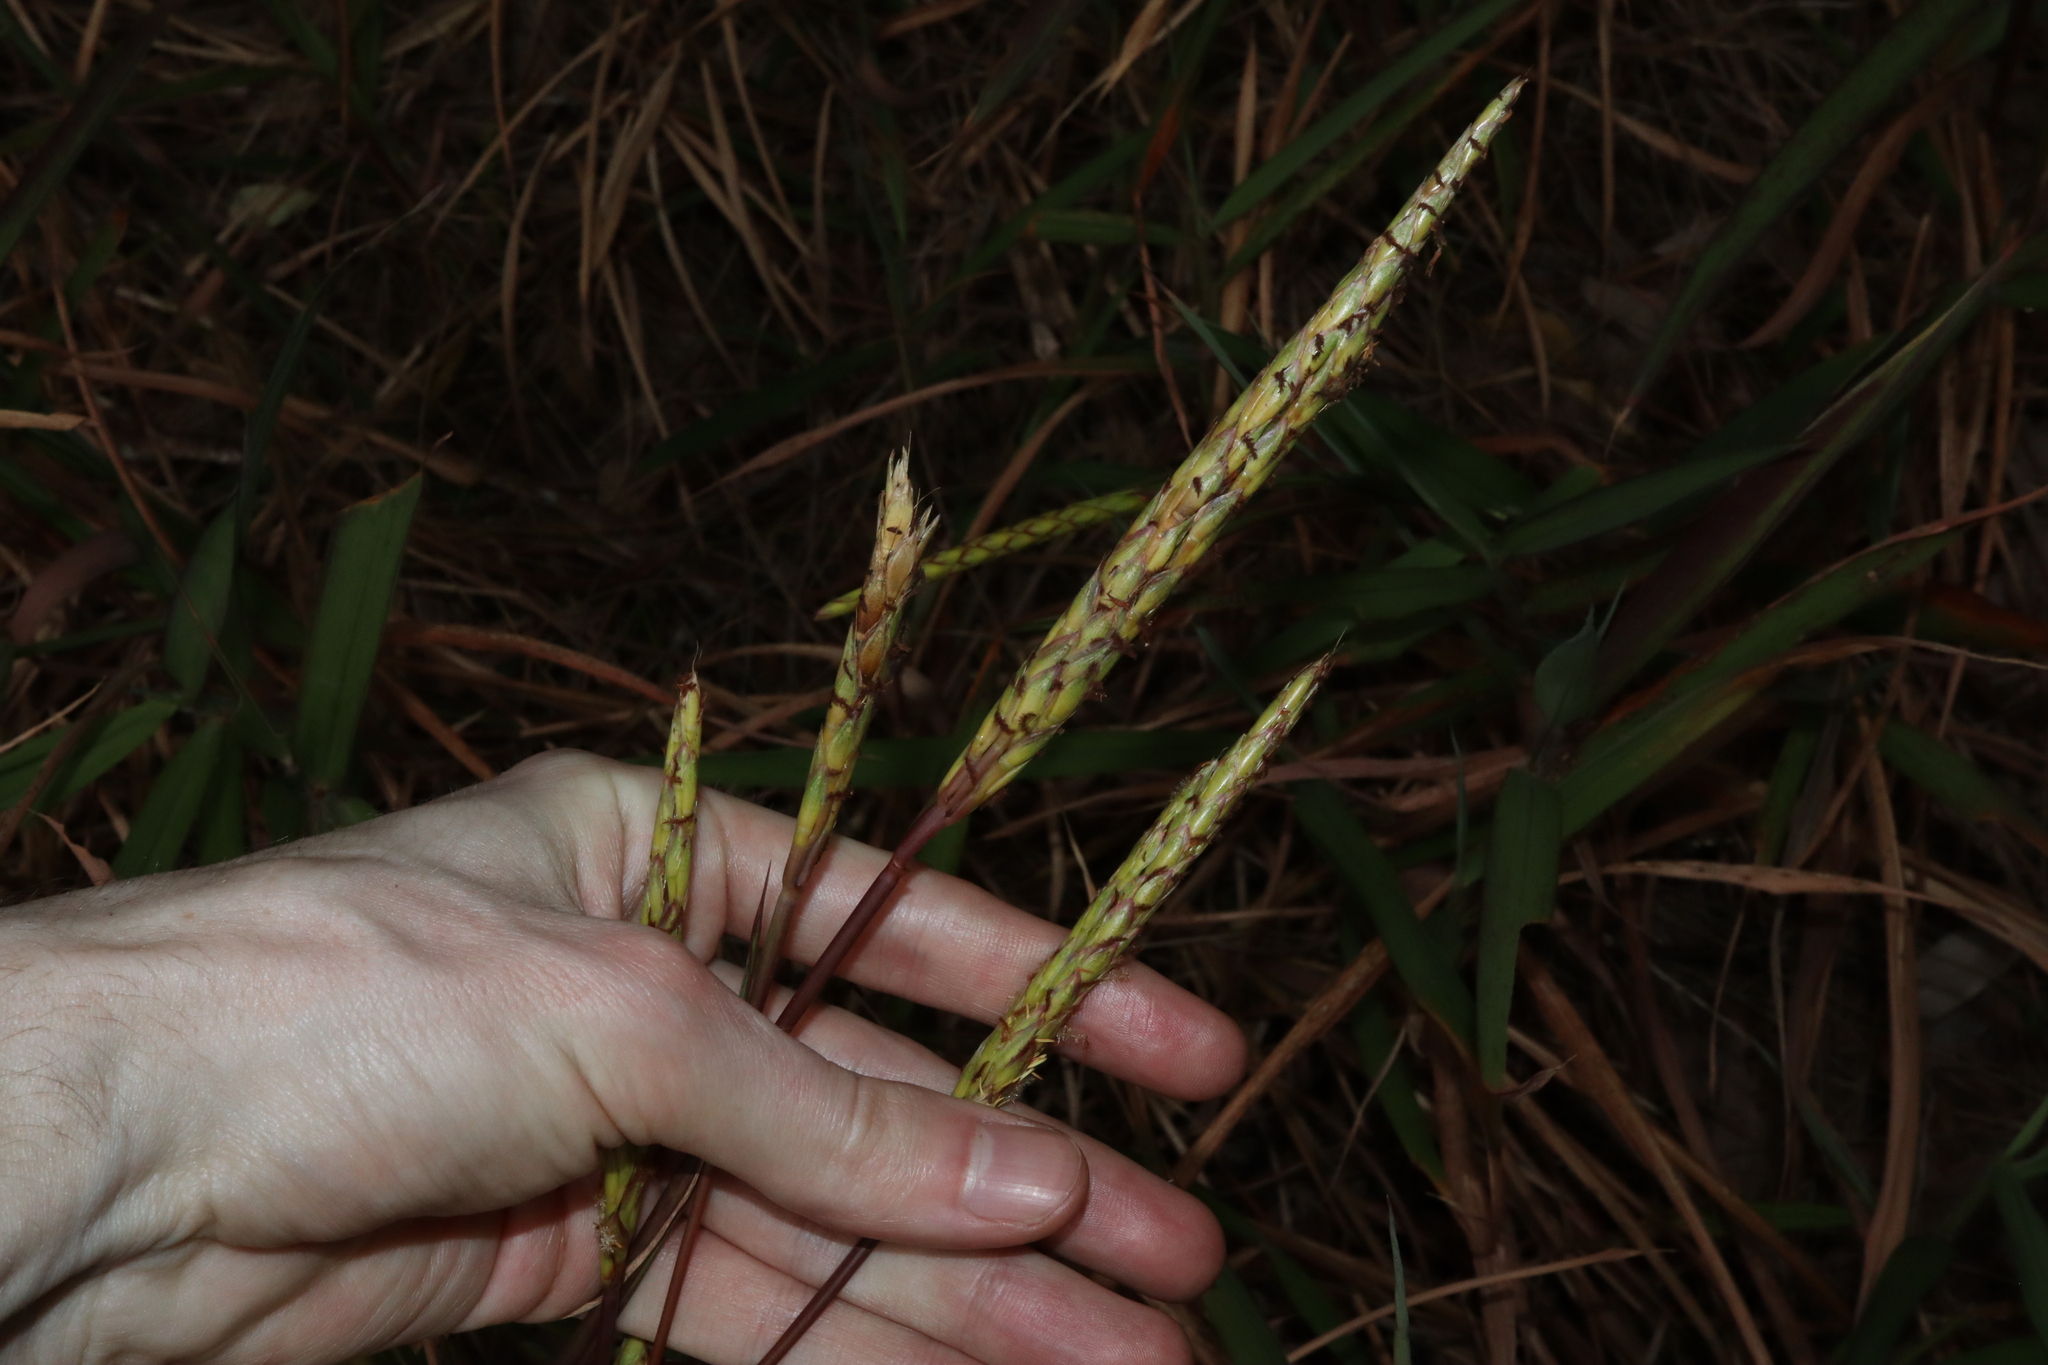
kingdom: Plantae
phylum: Tracheophyta
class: Liliopsida
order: Poales
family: Poaceae
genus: Ischaemum
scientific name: Ischaemum triticeum
